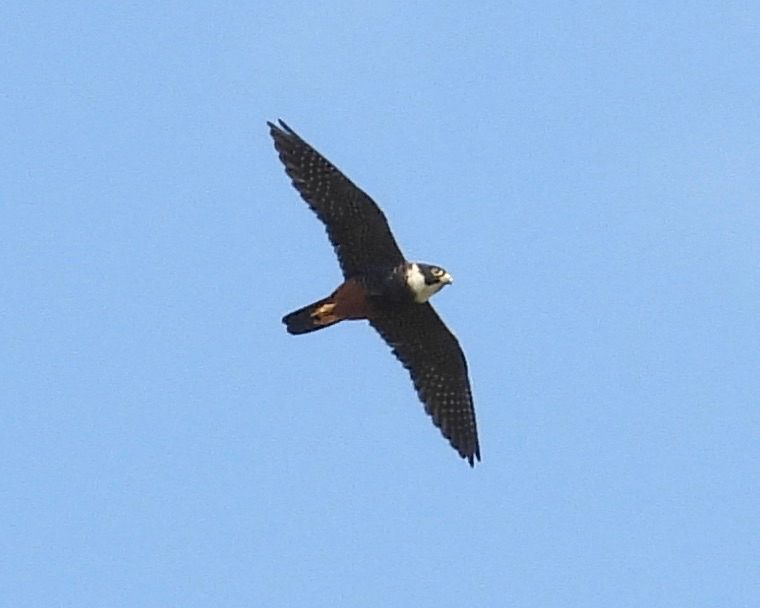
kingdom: Animalia
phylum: Chordata
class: Aves
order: Falconiformes
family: Falconidae
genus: Falco
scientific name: Falco rufigularis
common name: Bat falcon
